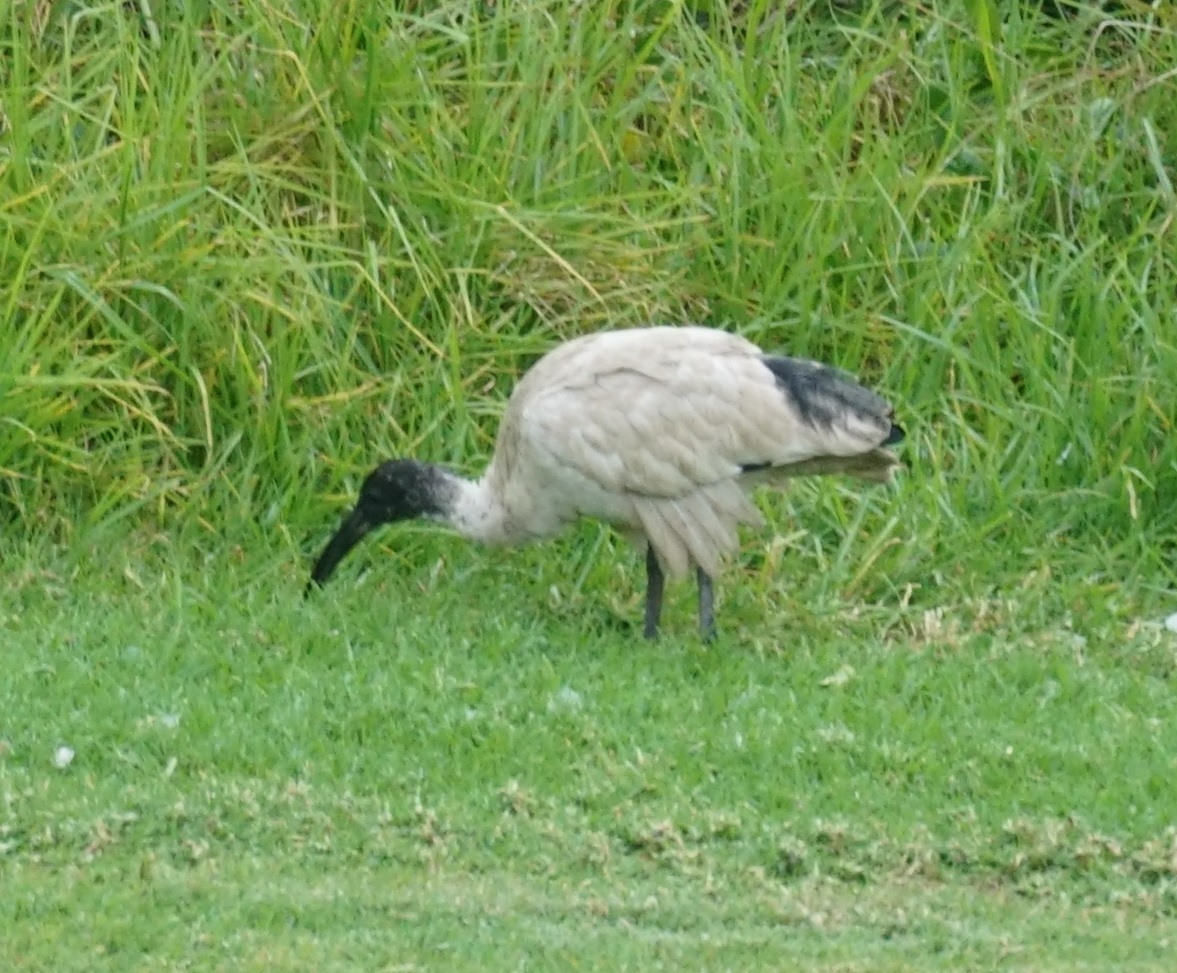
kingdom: Animalia
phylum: Chordata
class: Aves
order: Pelecaniformes
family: Threskiornithidae
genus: Threskiornis
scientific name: Threskiornis molucca
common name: Australian white ibis
